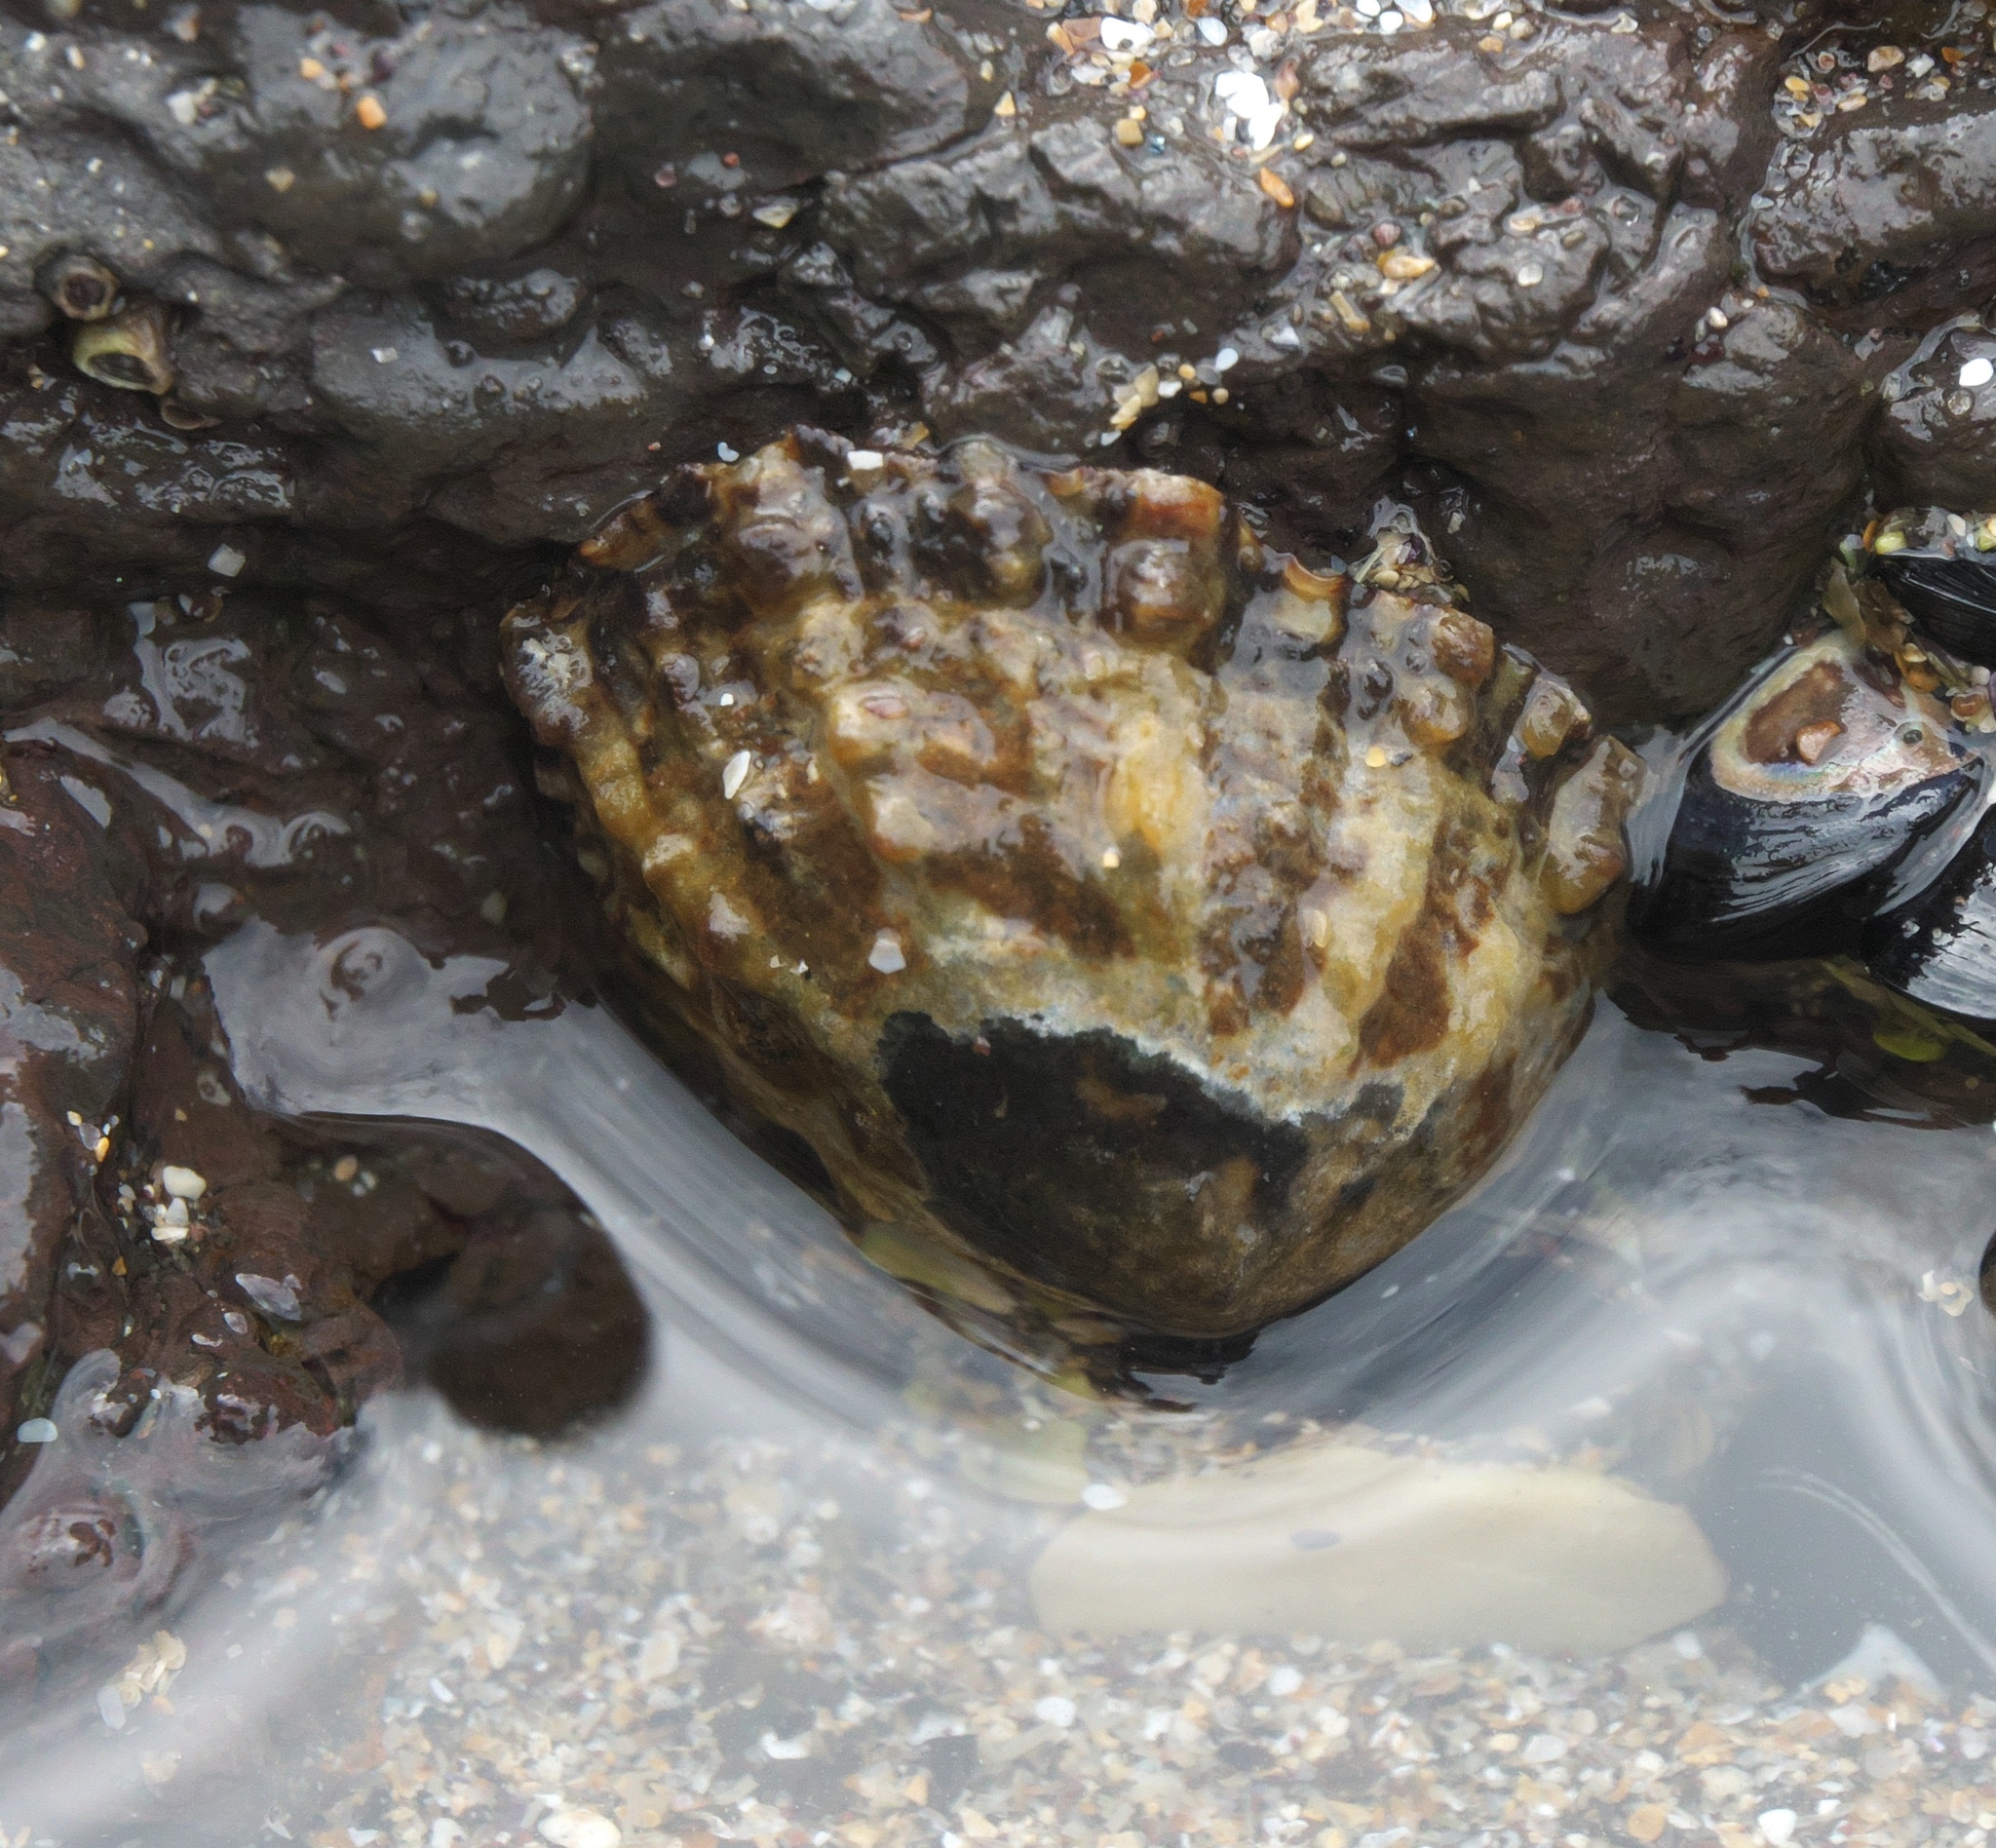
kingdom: Animalia
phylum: Mollusca
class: Gastropoda
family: Nacellidae
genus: Cellana
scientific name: Cellana ornata
